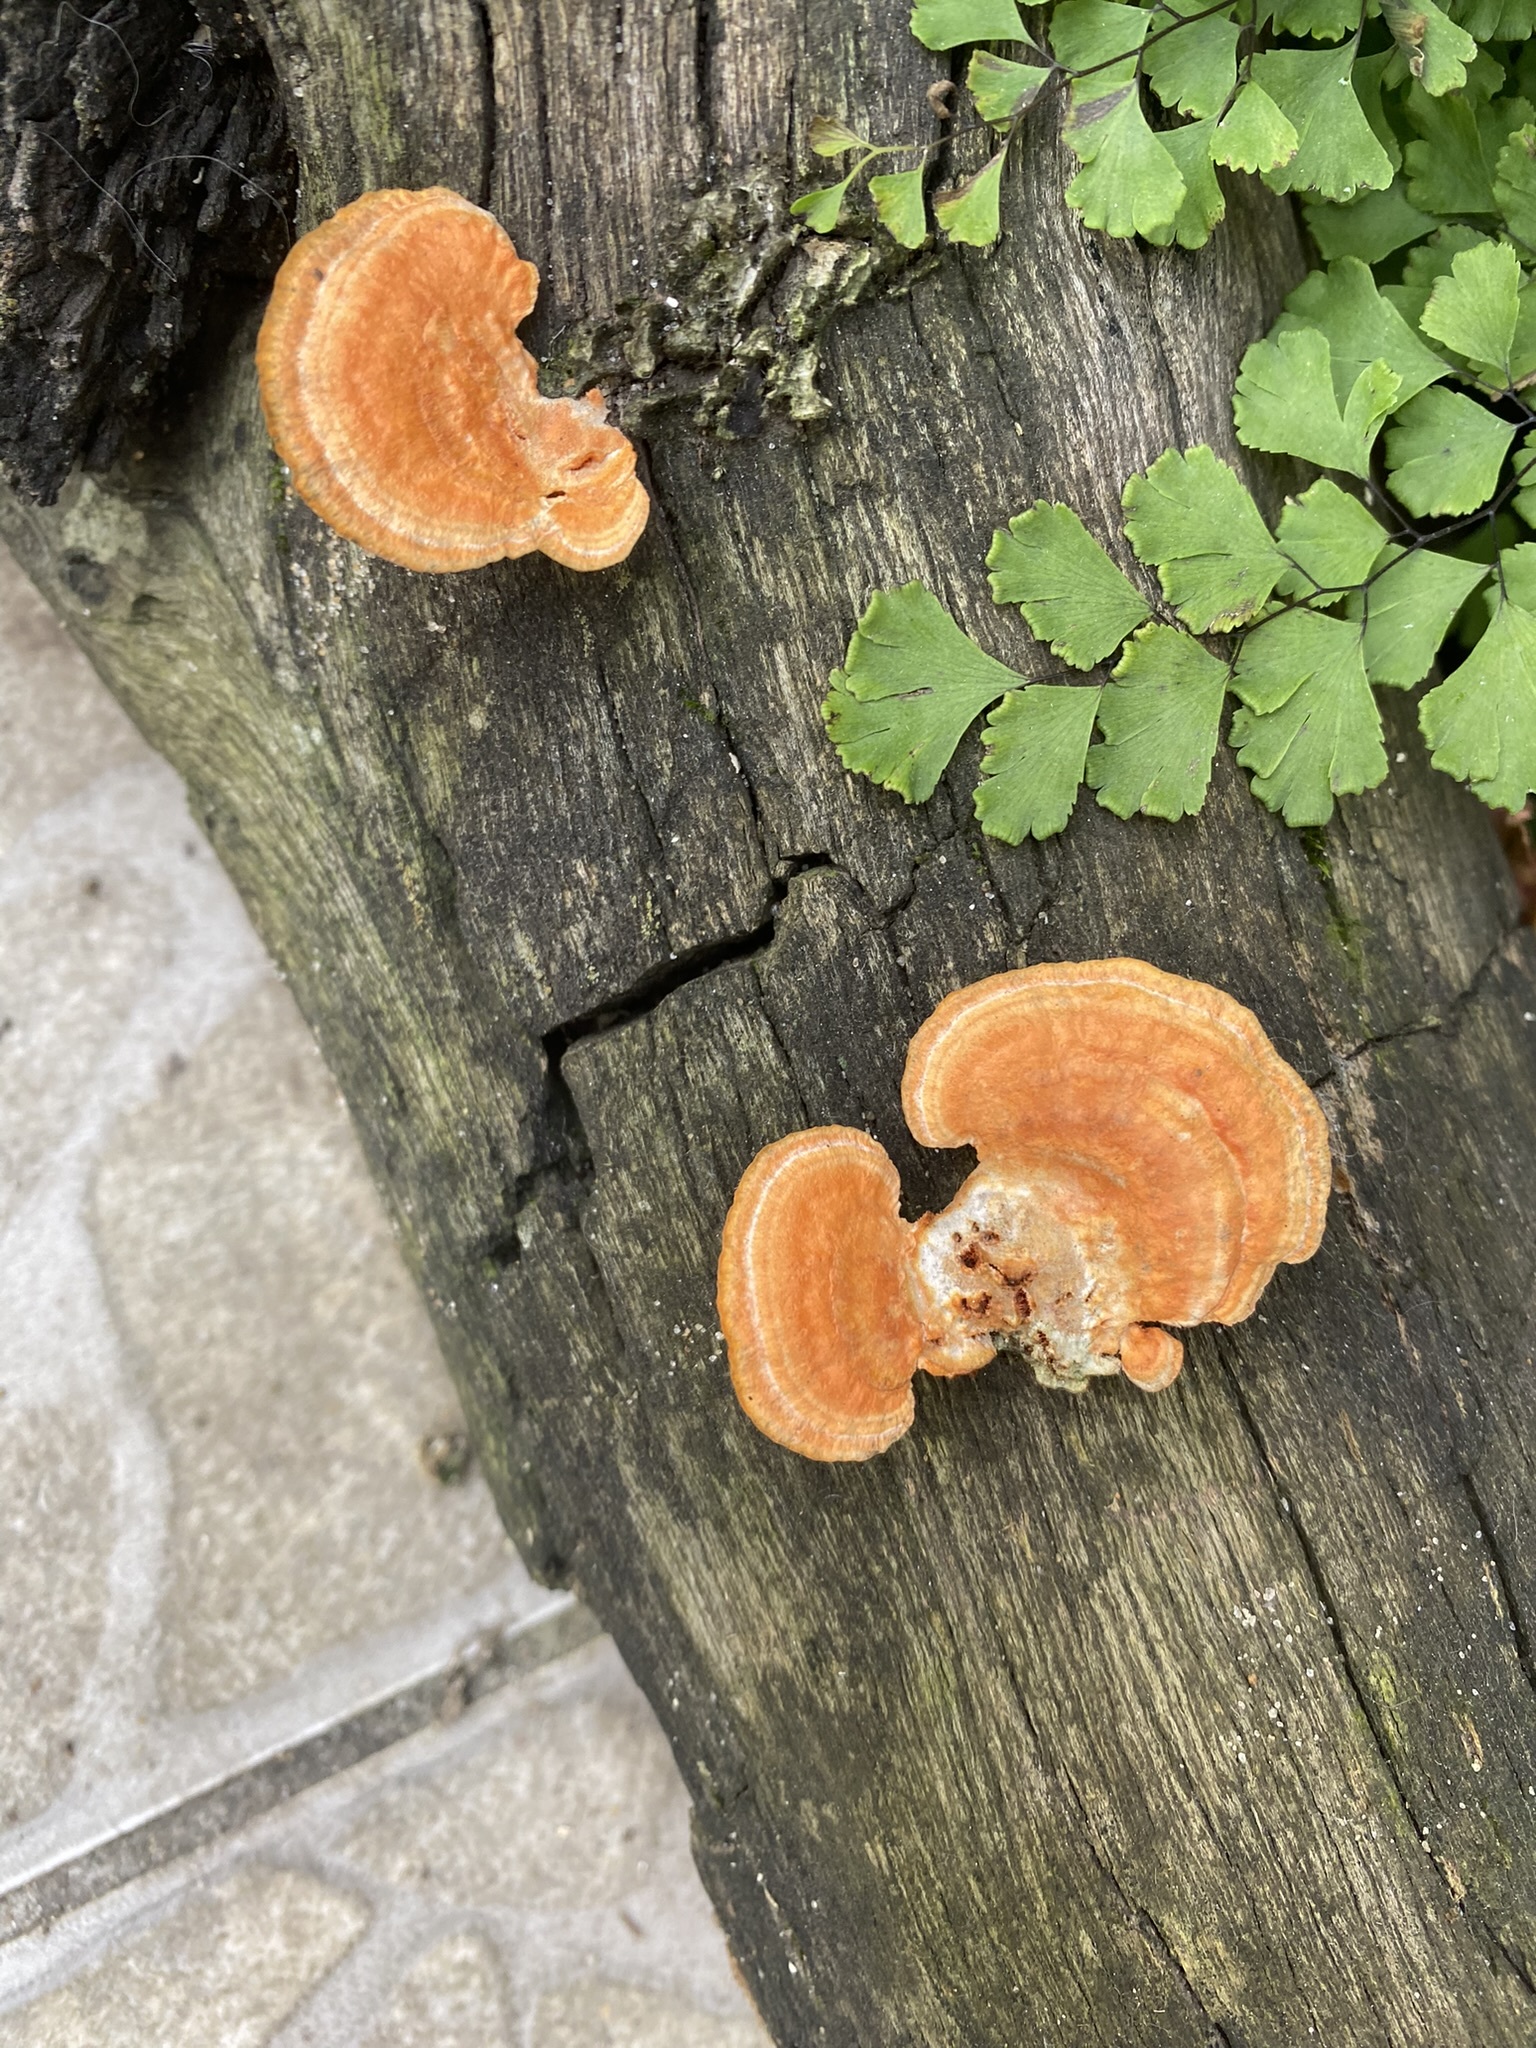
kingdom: Fungi
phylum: Basidiomycota
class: Agaricomycetes
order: Polyporales
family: Polyporaceae
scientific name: Polyporaceae
